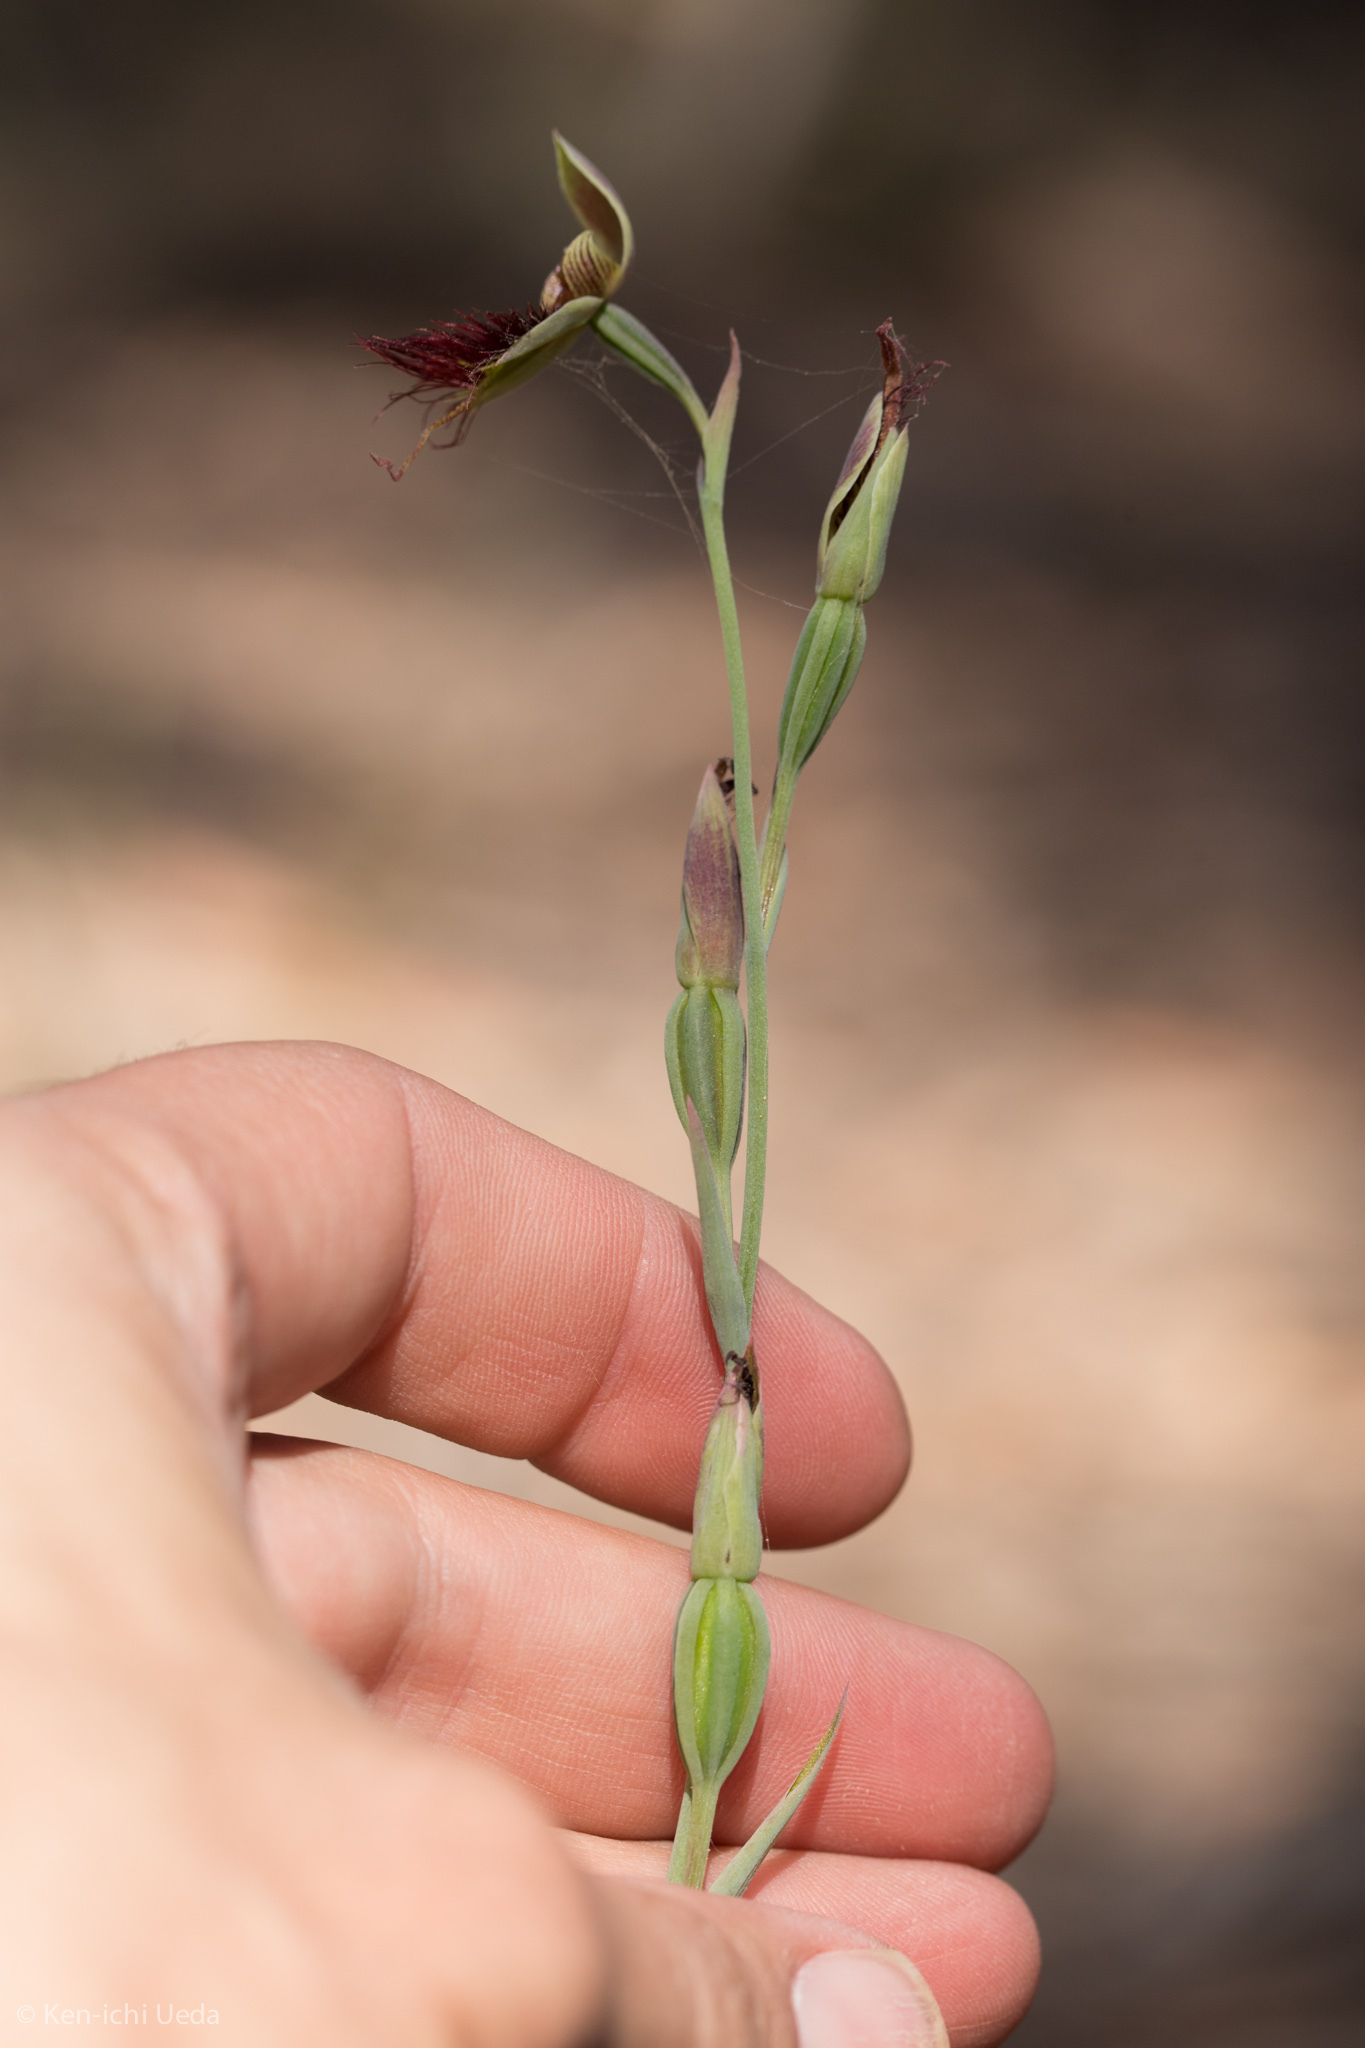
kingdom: Plantae
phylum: Tracheophyta
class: Liliopsida
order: Asparagales
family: Orchidaceae
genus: Calochilus
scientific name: Calochilus paludosus
